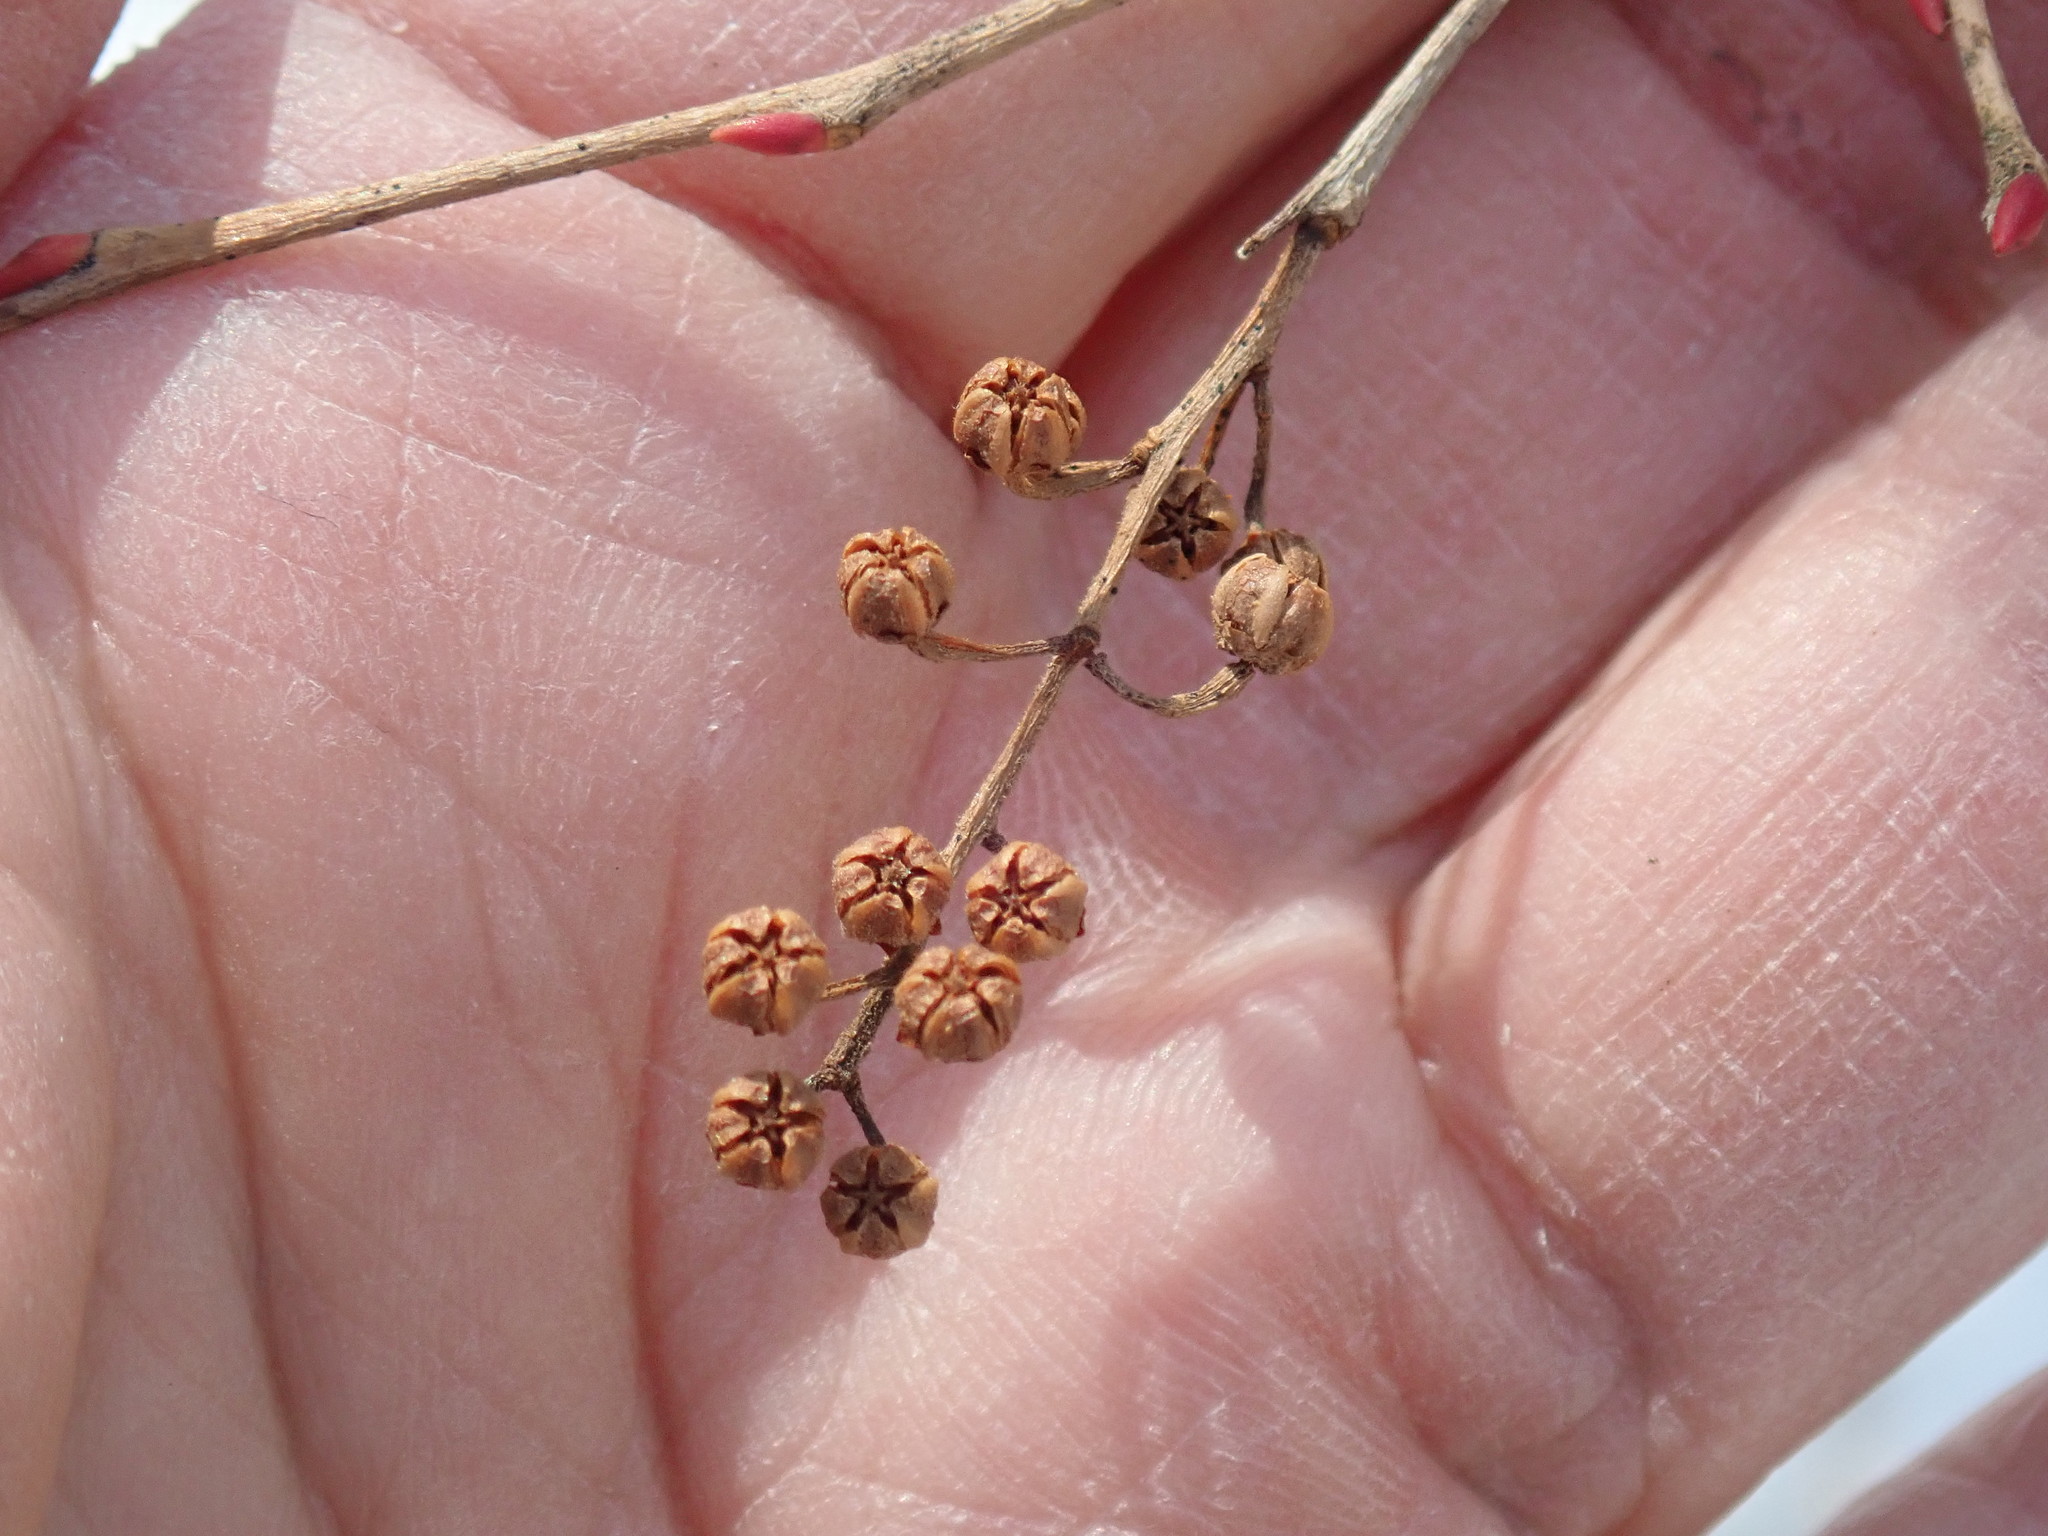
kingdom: Plantae
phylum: Tracheophyta
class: Magnoliopsida
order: Ericales
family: Ericaceae
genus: Lyonia
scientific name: Lyonia ligustrina
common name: Maleberry
